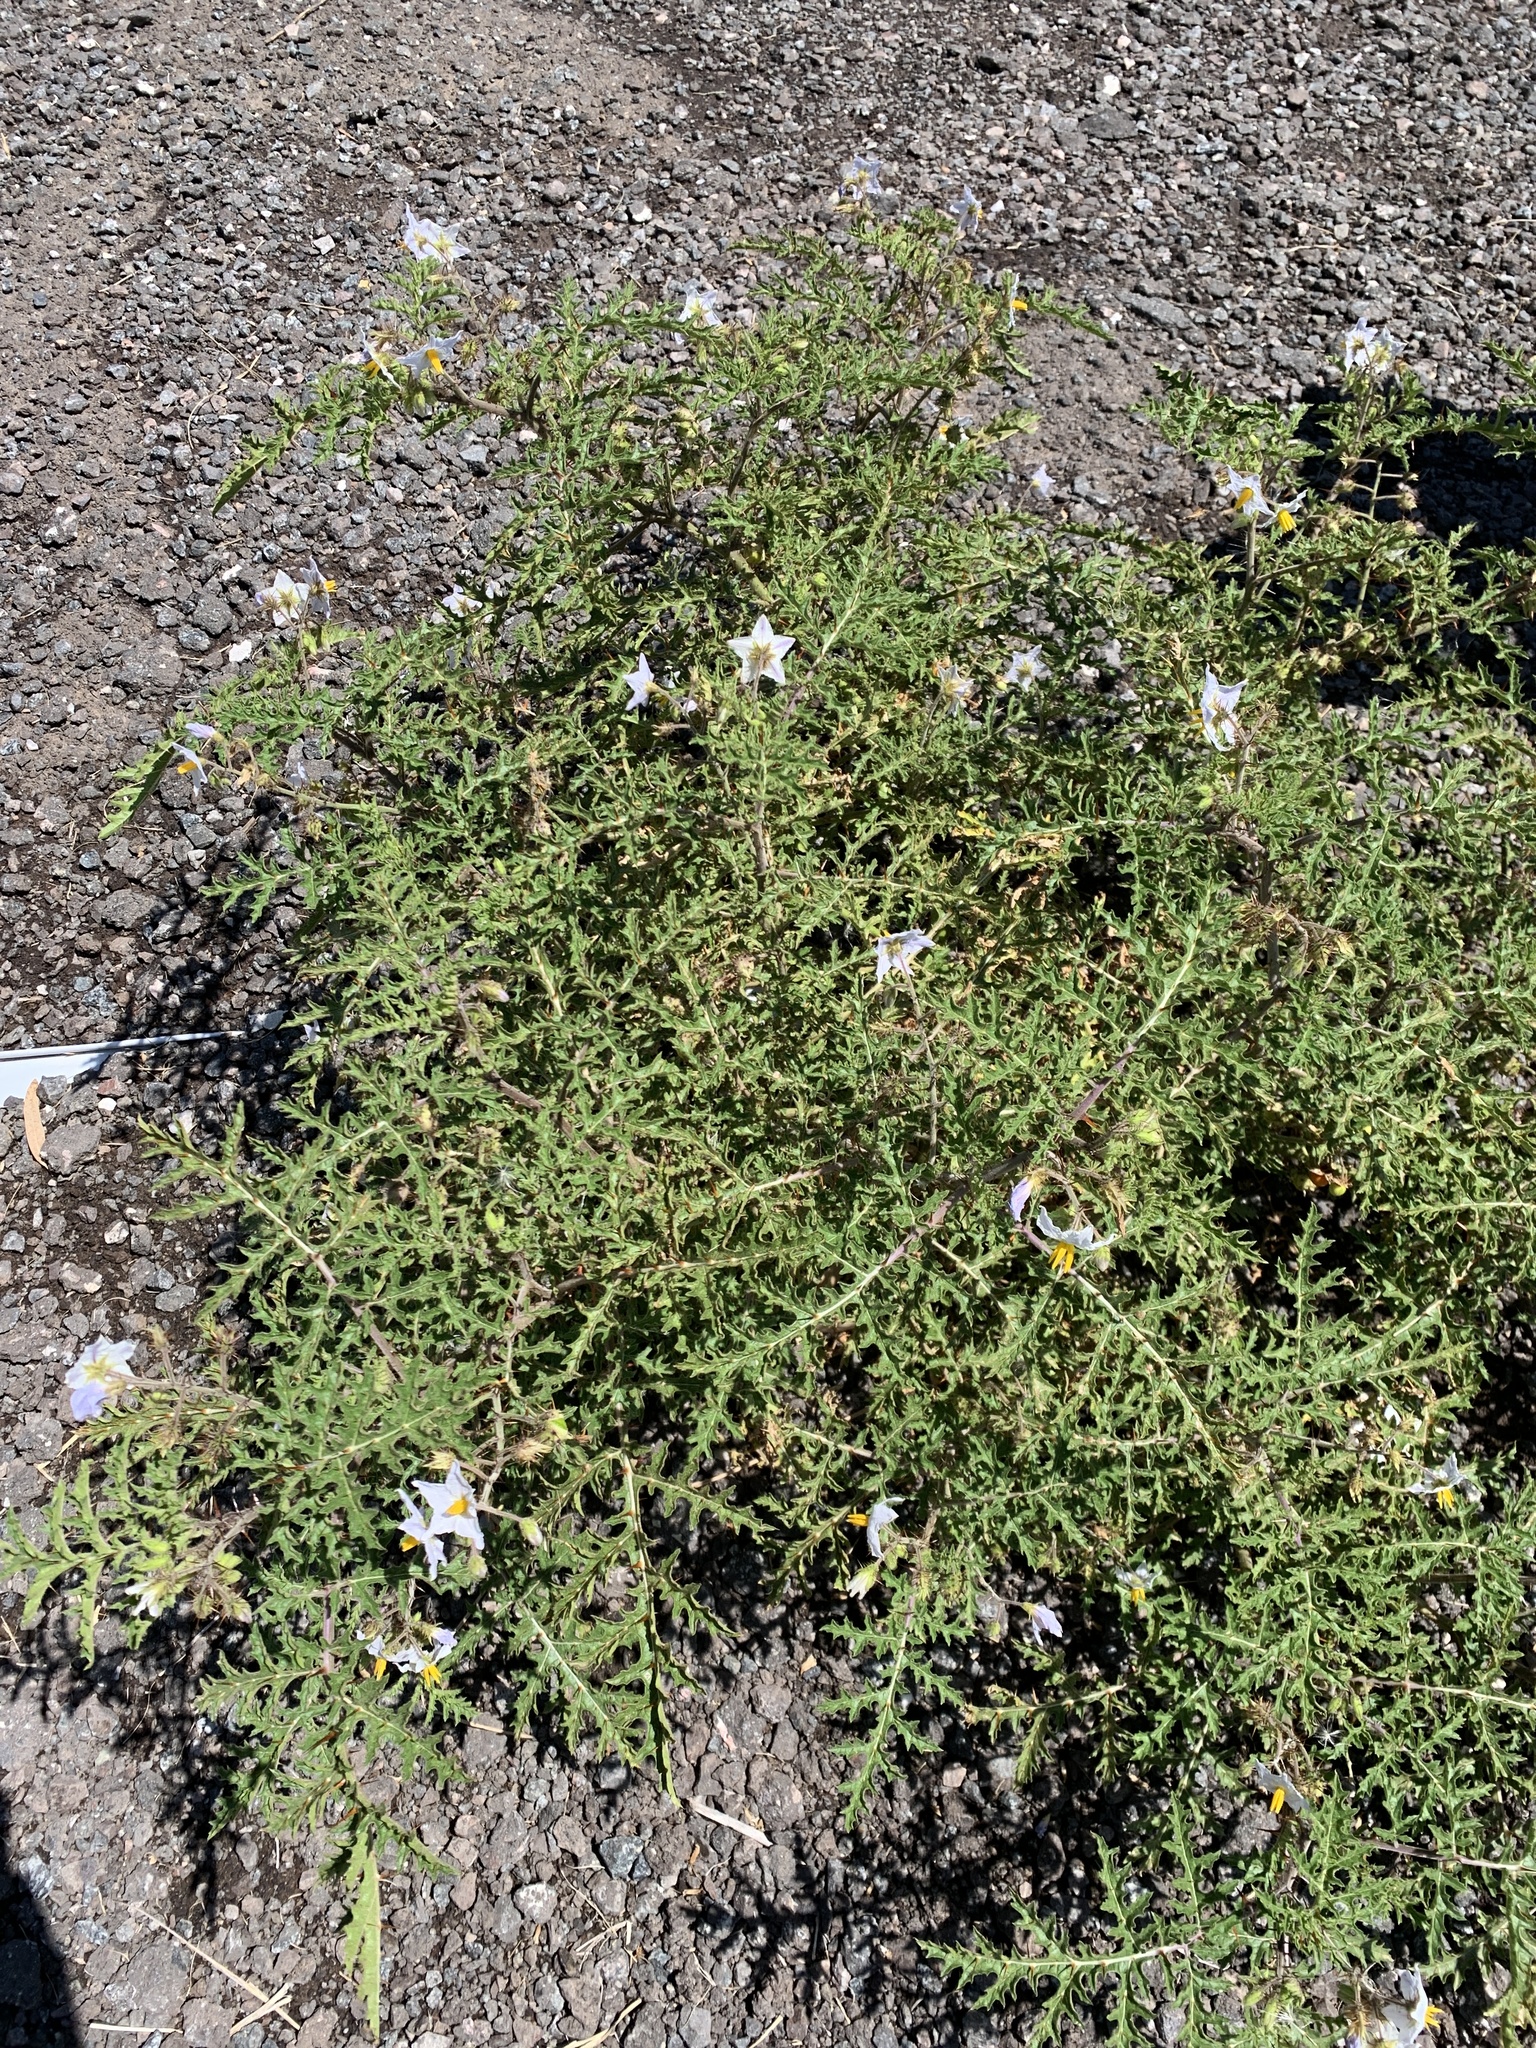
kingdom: Plantae
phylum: Tracheophyta
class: Magnoliopsida
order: Solanales
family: Solanaceae
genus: Solanum
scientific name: Solanum sisymbriifolium
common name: Red buffalo-bur
